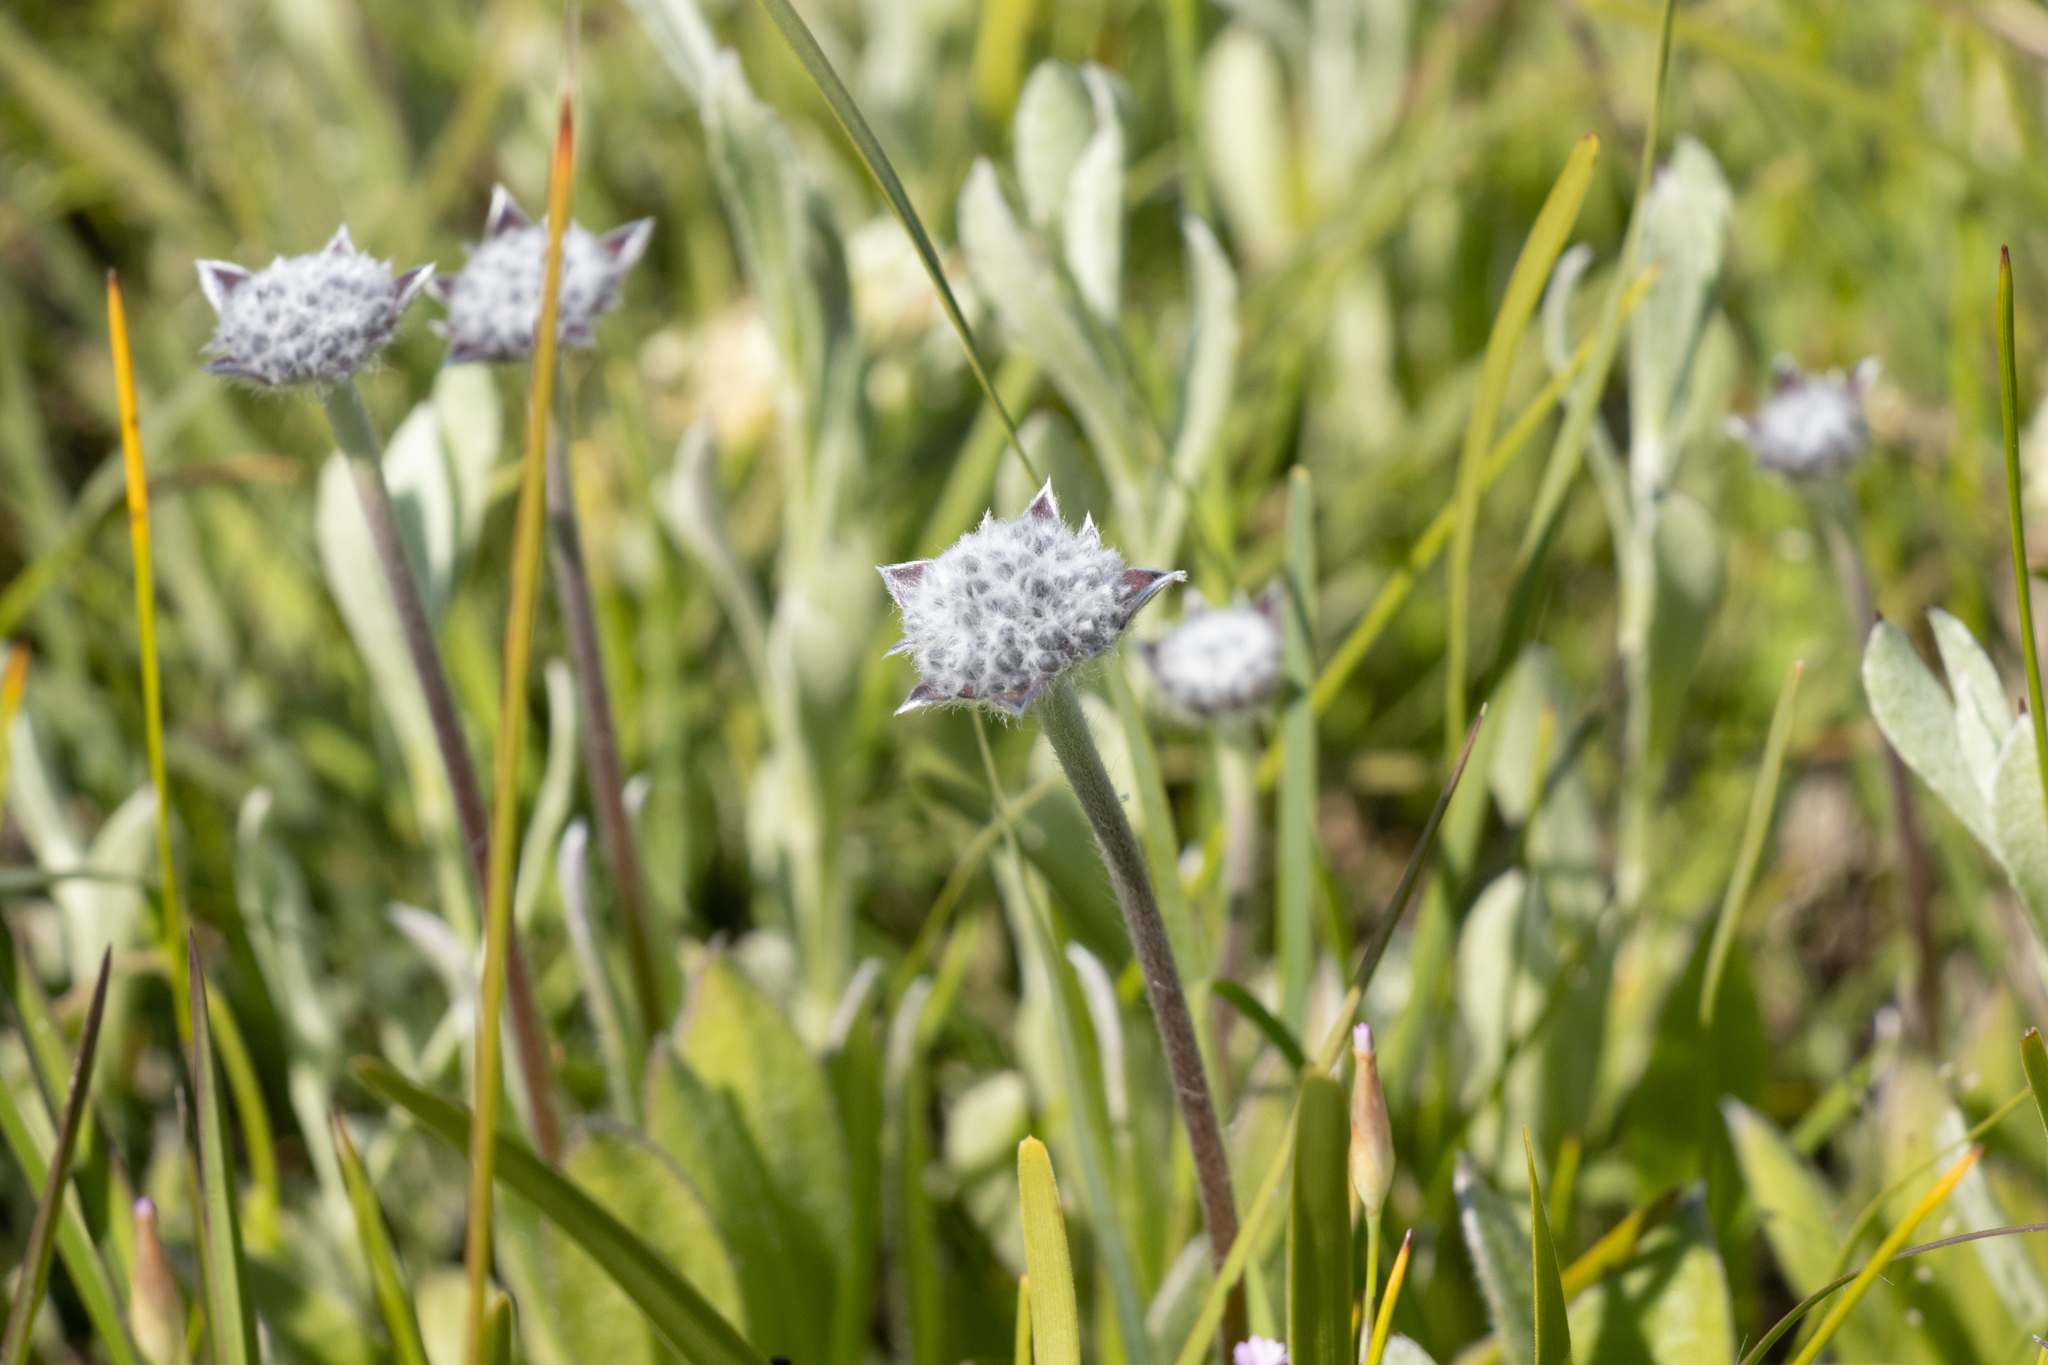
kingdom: Plantae
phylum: Tracheophyta
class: Magnoliopsida
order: Asterales
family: Goodeniaceae
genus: Brunonia
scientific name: Brunonia australis
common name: Blue pincushion
